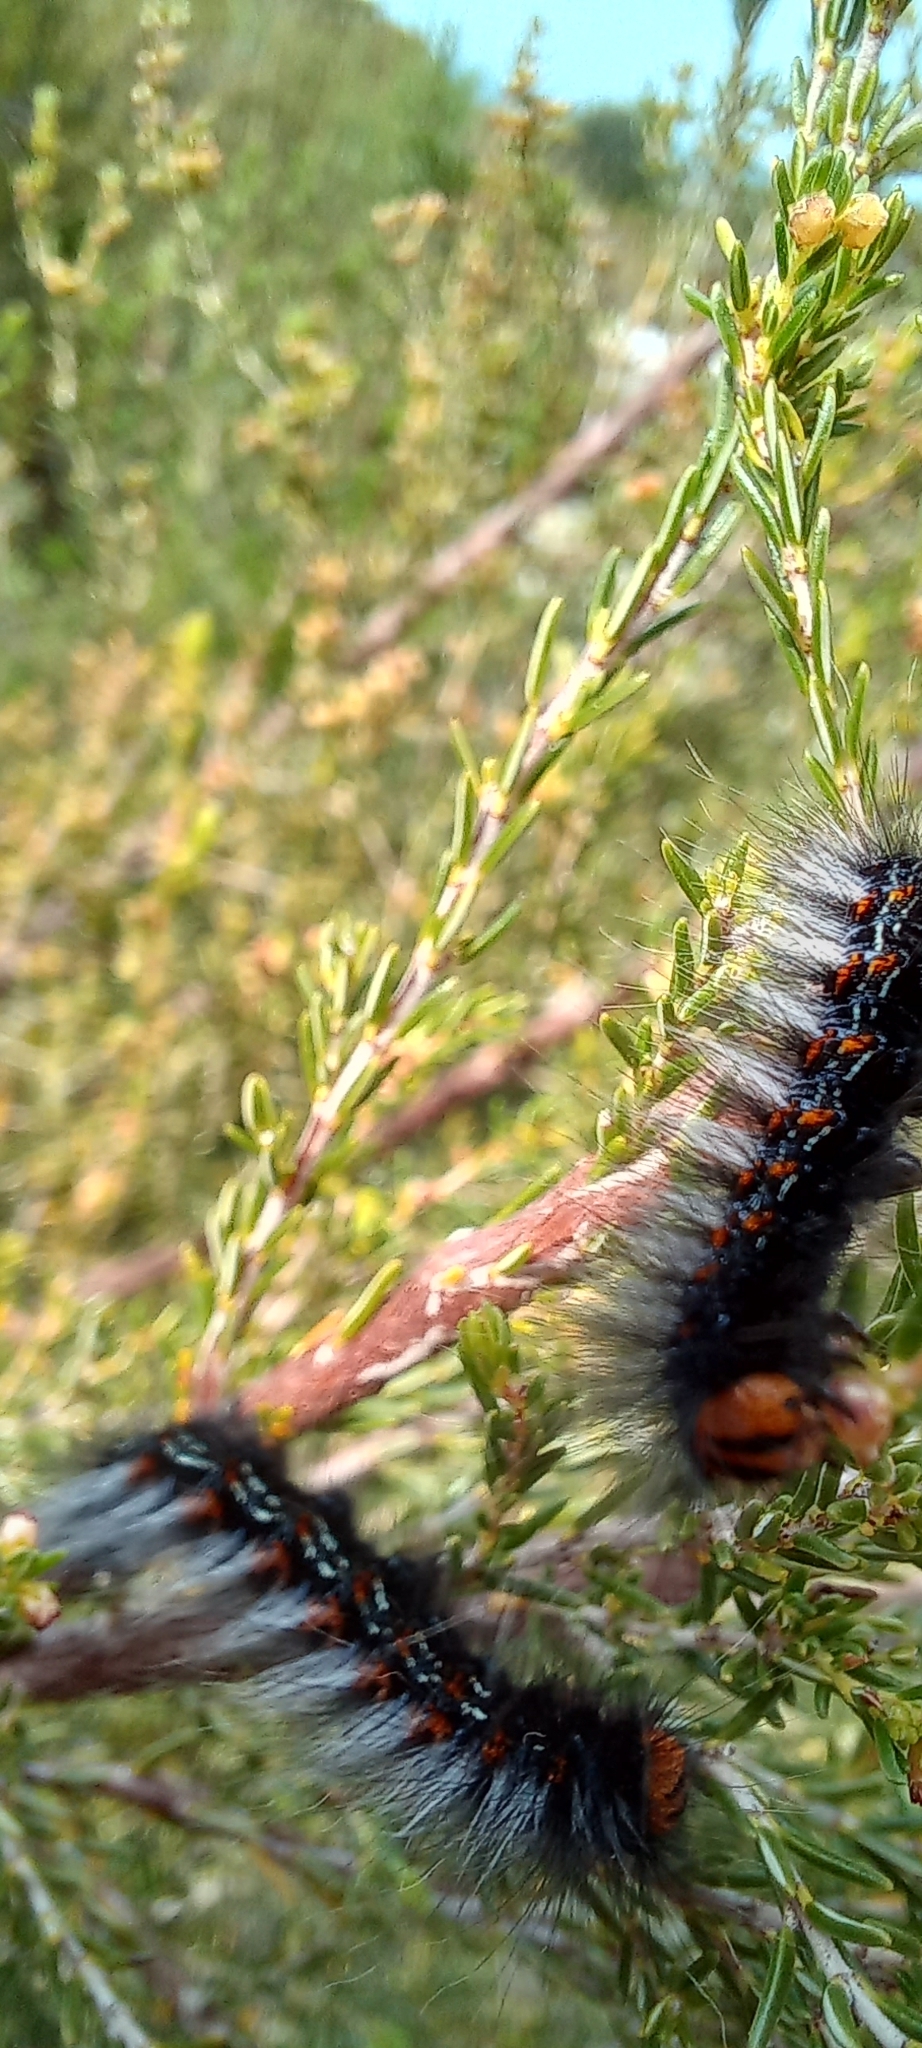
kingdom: Animalia
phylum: Arthropoda
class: Insecta
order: Lepidoptera
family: Lasiocampidae
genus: Mesocelis
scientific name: Mesocelis monticola
